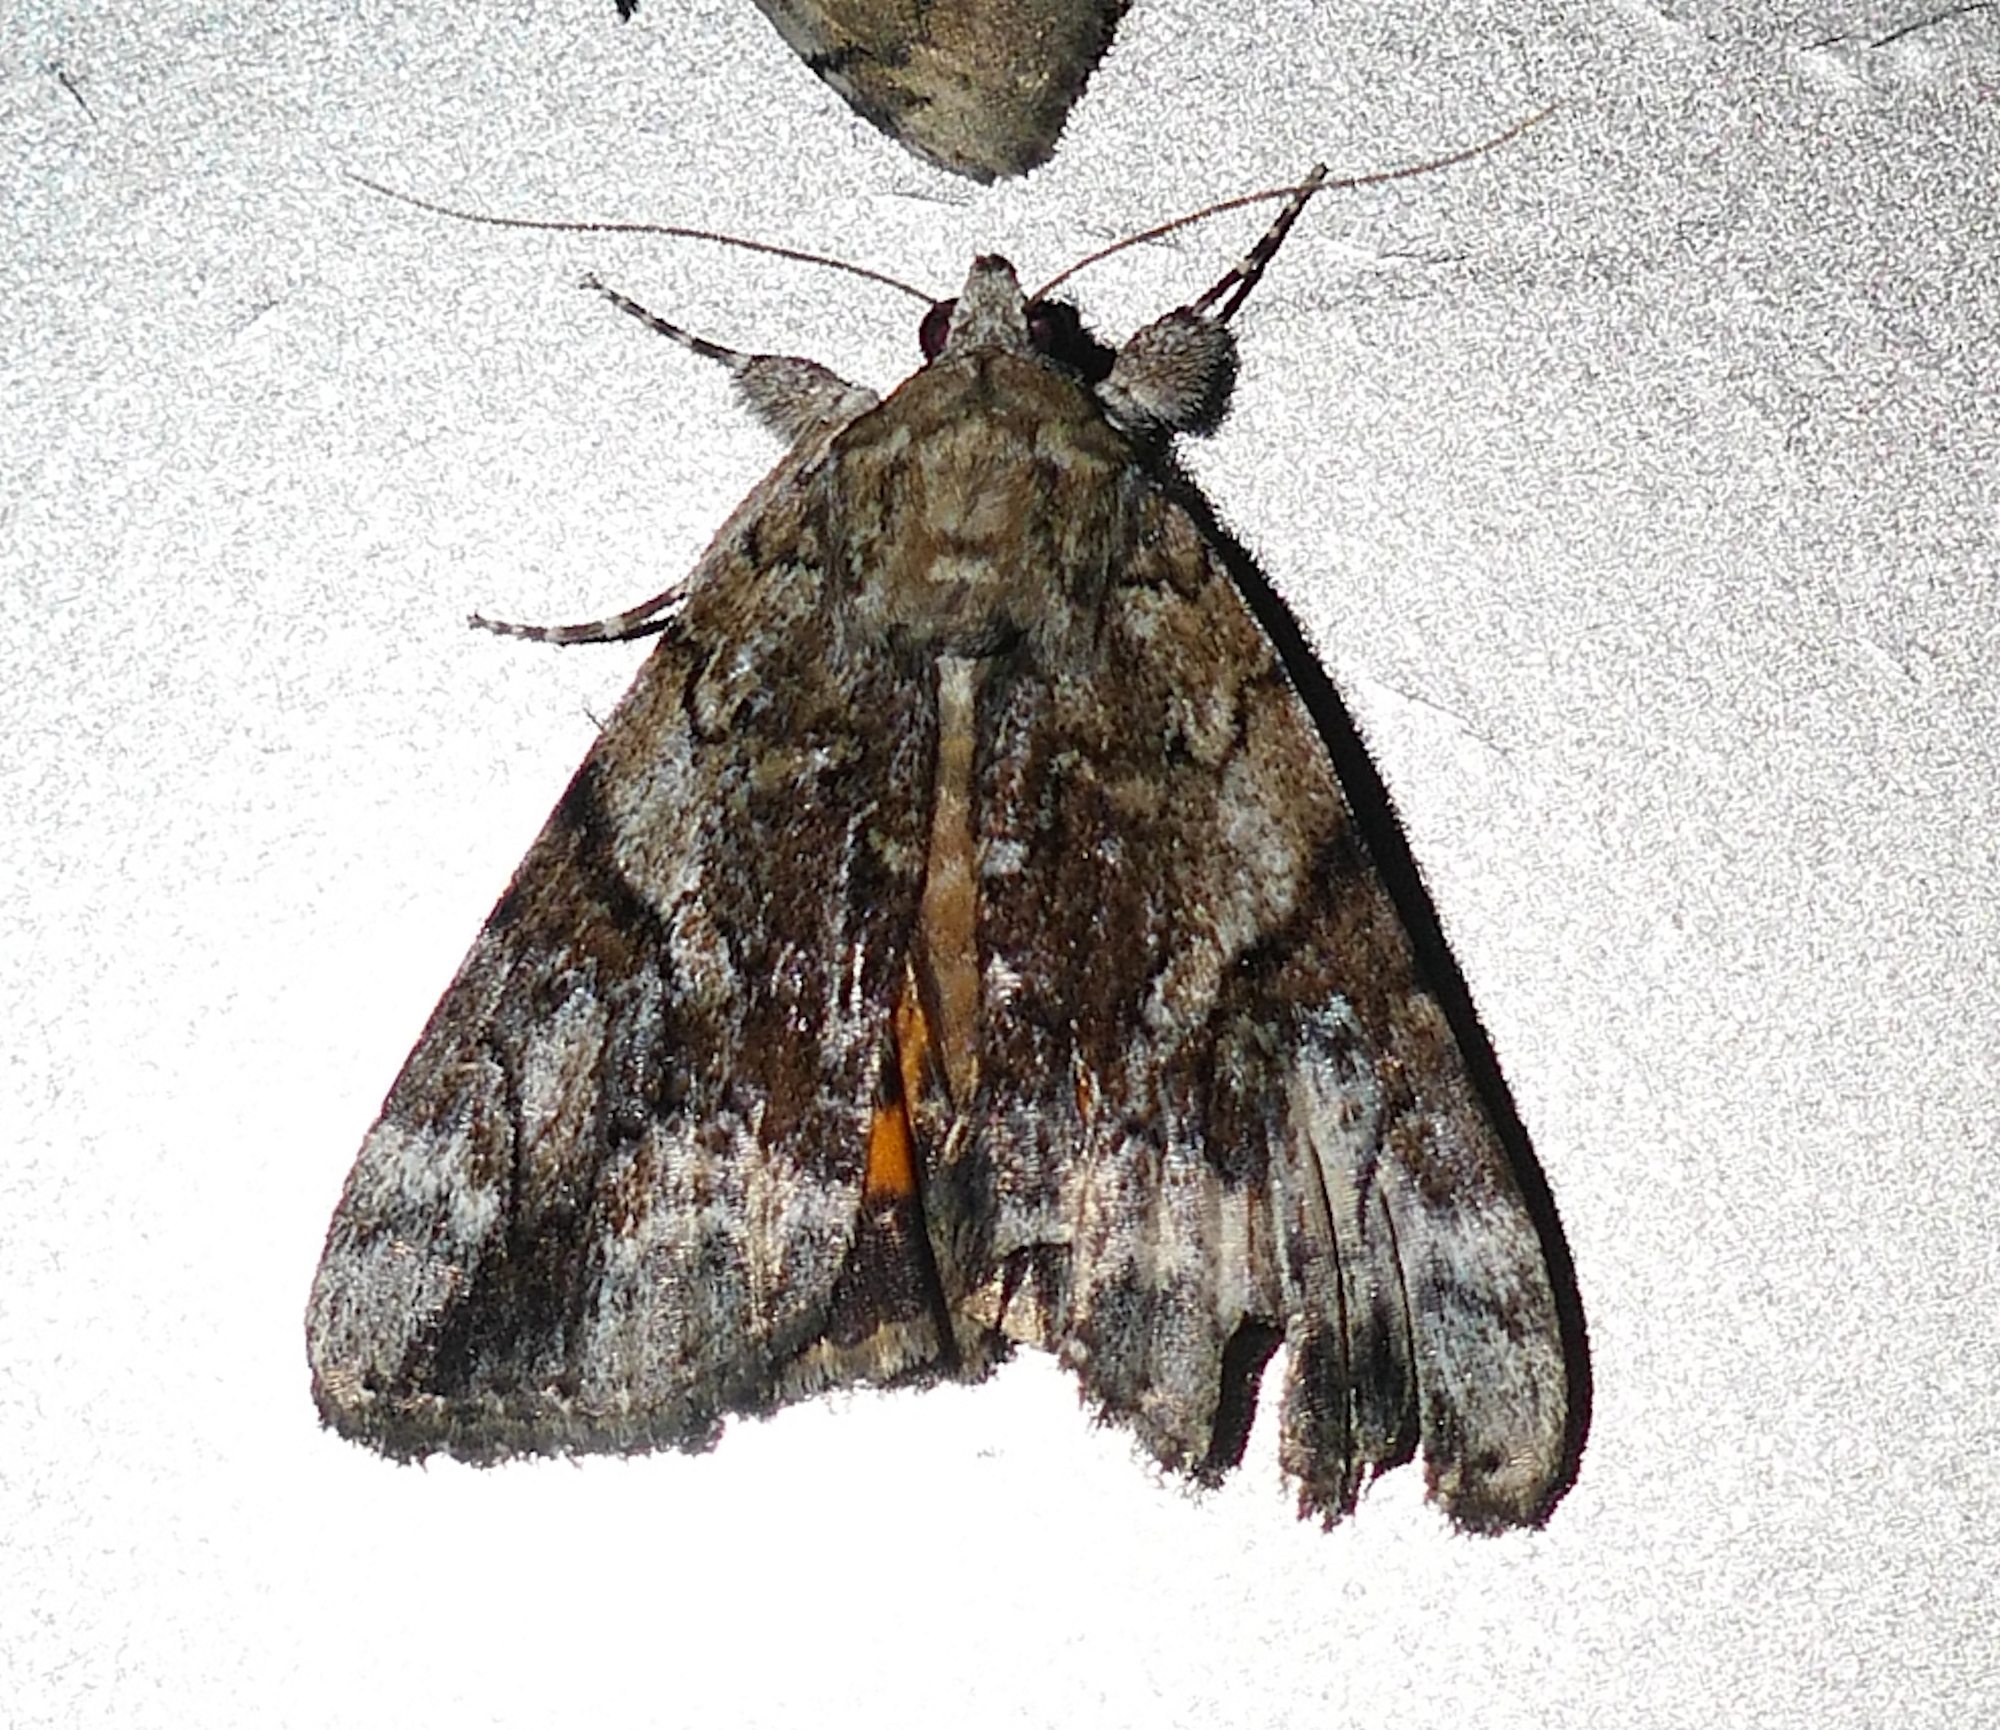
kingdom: Animalia
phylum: Arthropoda
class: Insecta
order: Lepidoptera
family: Erebidae
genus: Catocala
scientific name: Catocala micronympha
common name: Little nymph underwing
